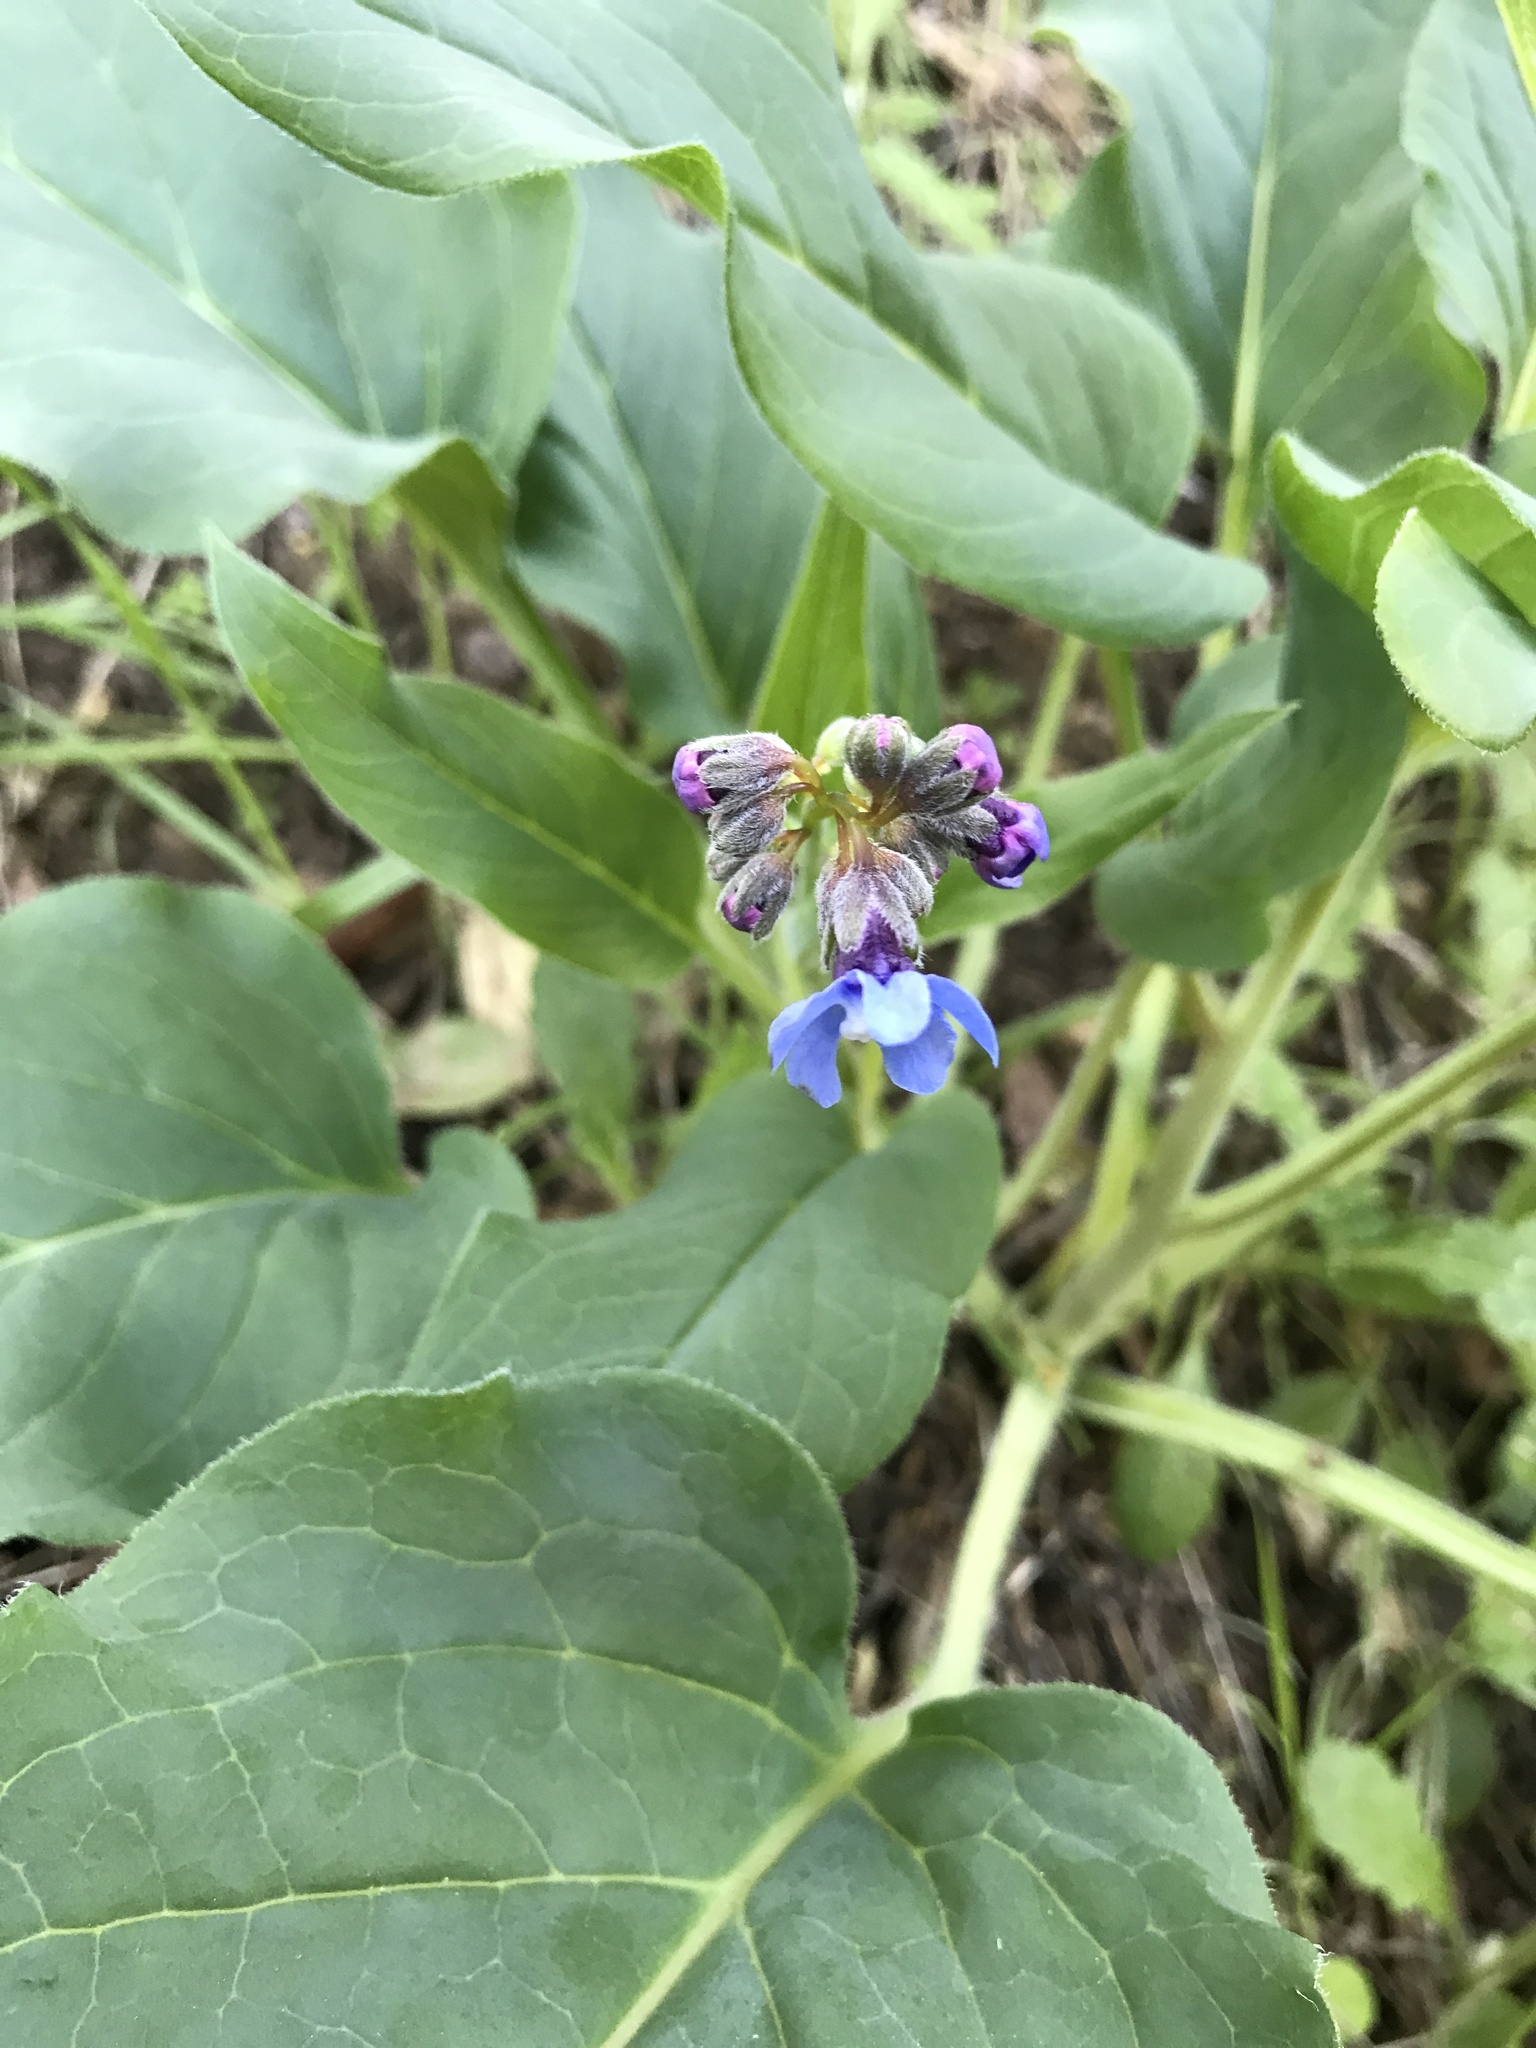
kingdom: Plantae
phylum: Tracheophyta
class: Magnoliopsida
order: Boraginales
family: Boraginaceae
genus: Adelinia
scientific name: Adelinia grande
